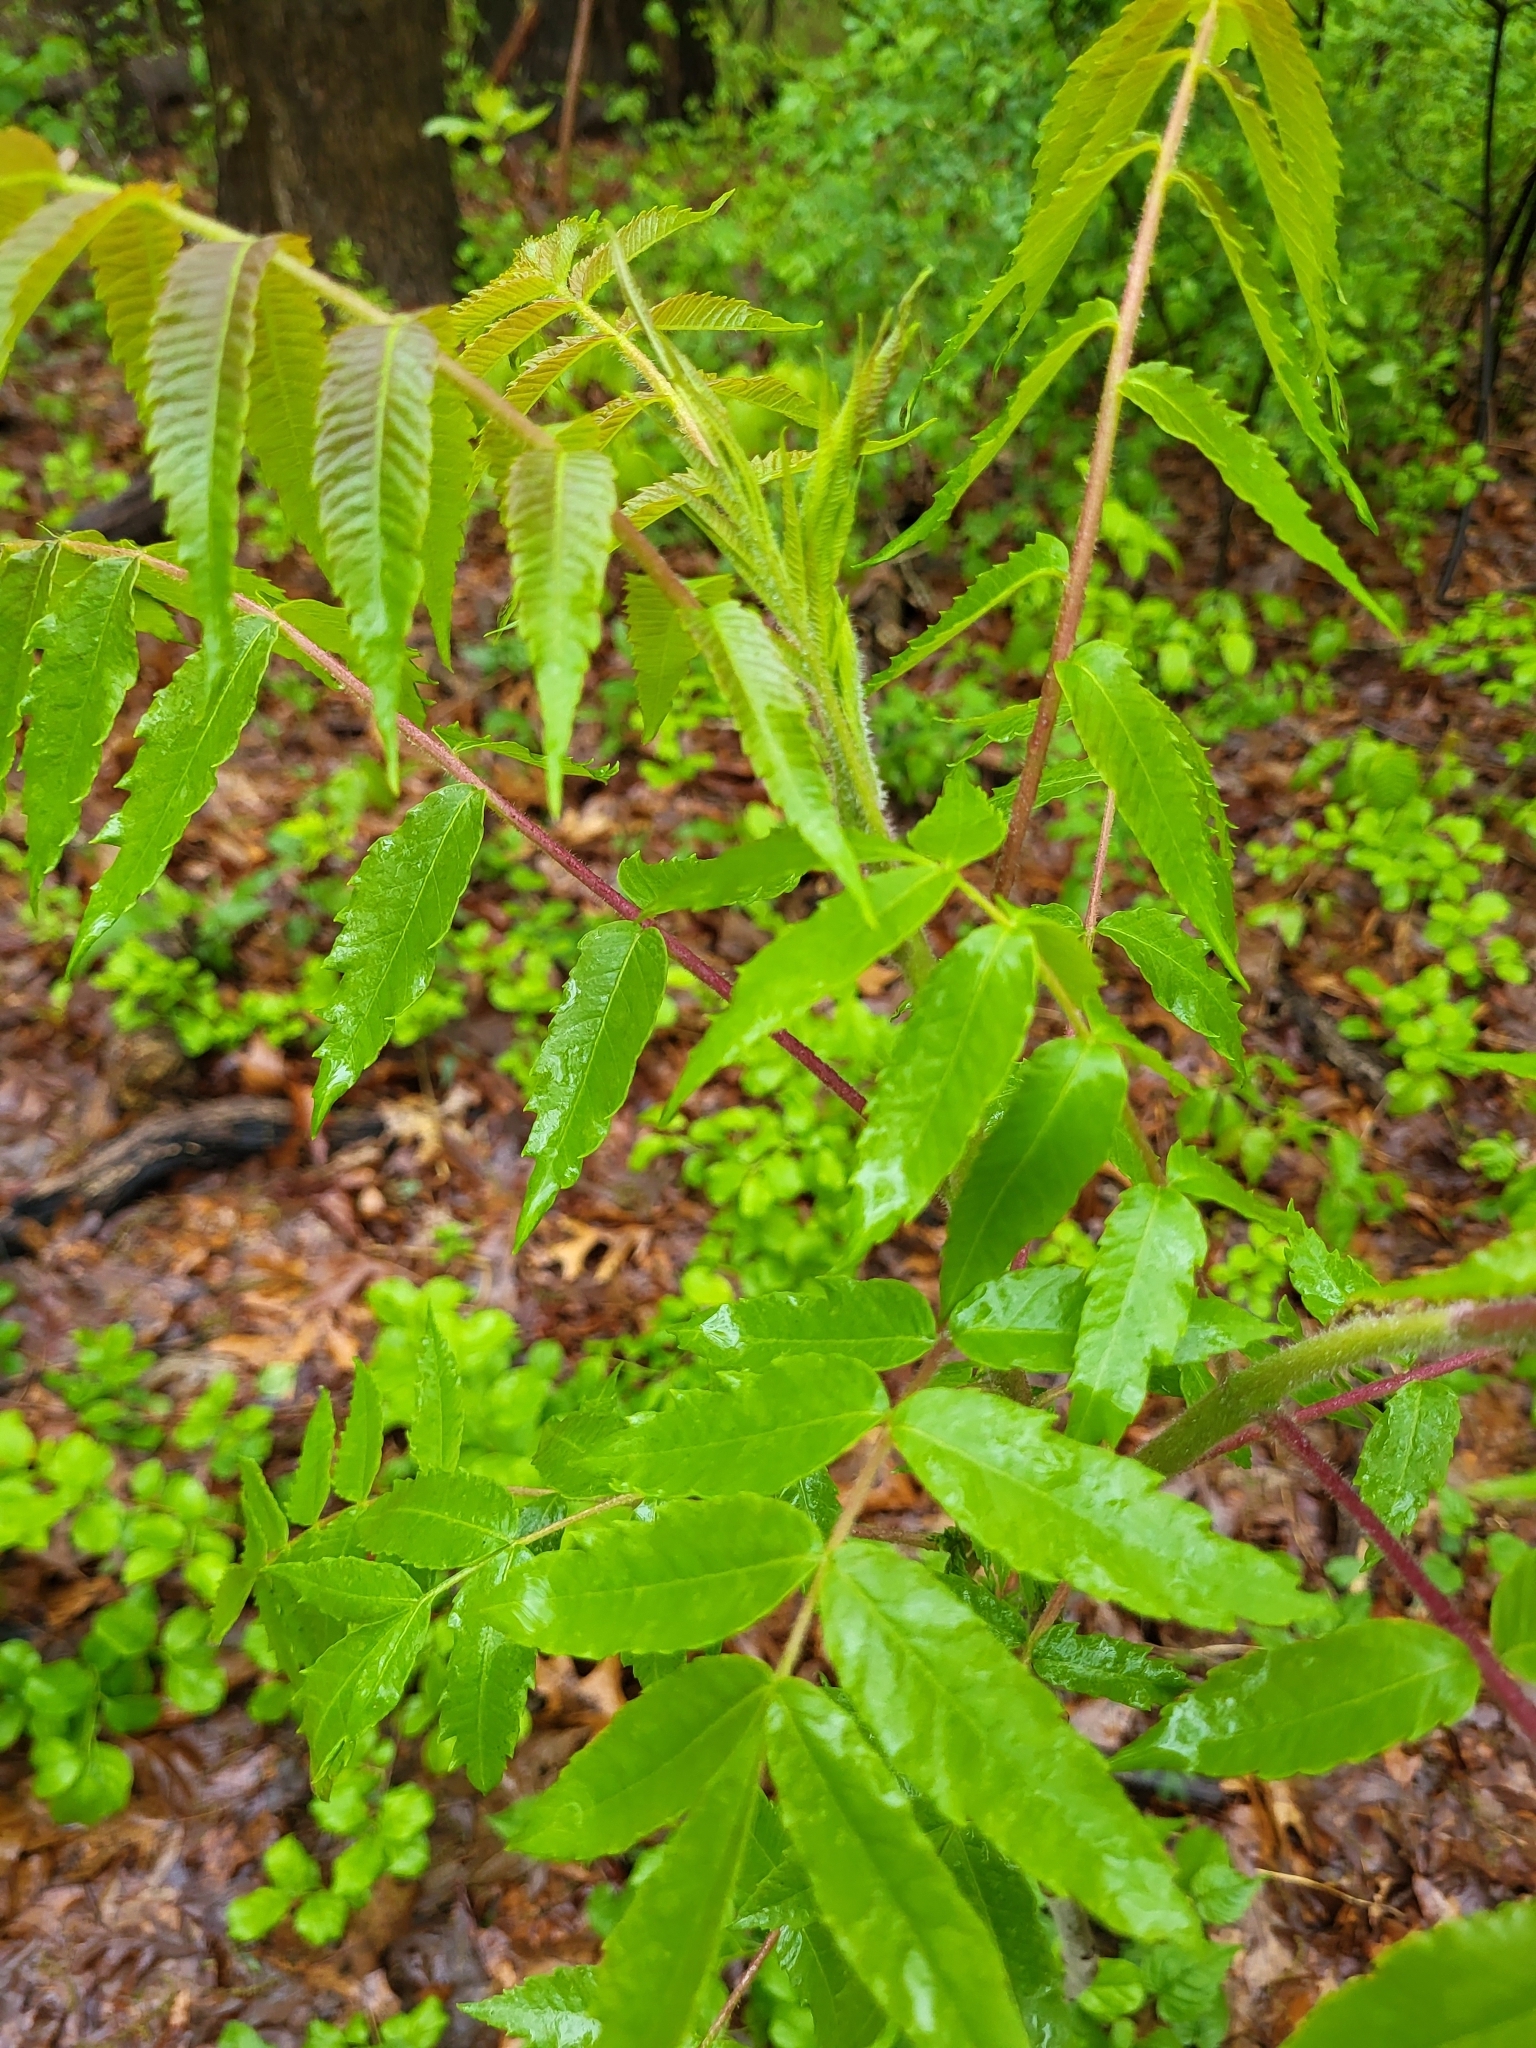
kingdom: Plantae
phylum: Tracheophyta
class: Magnoliopsida
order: Sapindales
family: Anacardiaceae
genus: Rhus
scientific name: Rhus typhina
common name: Staghorn sumac
